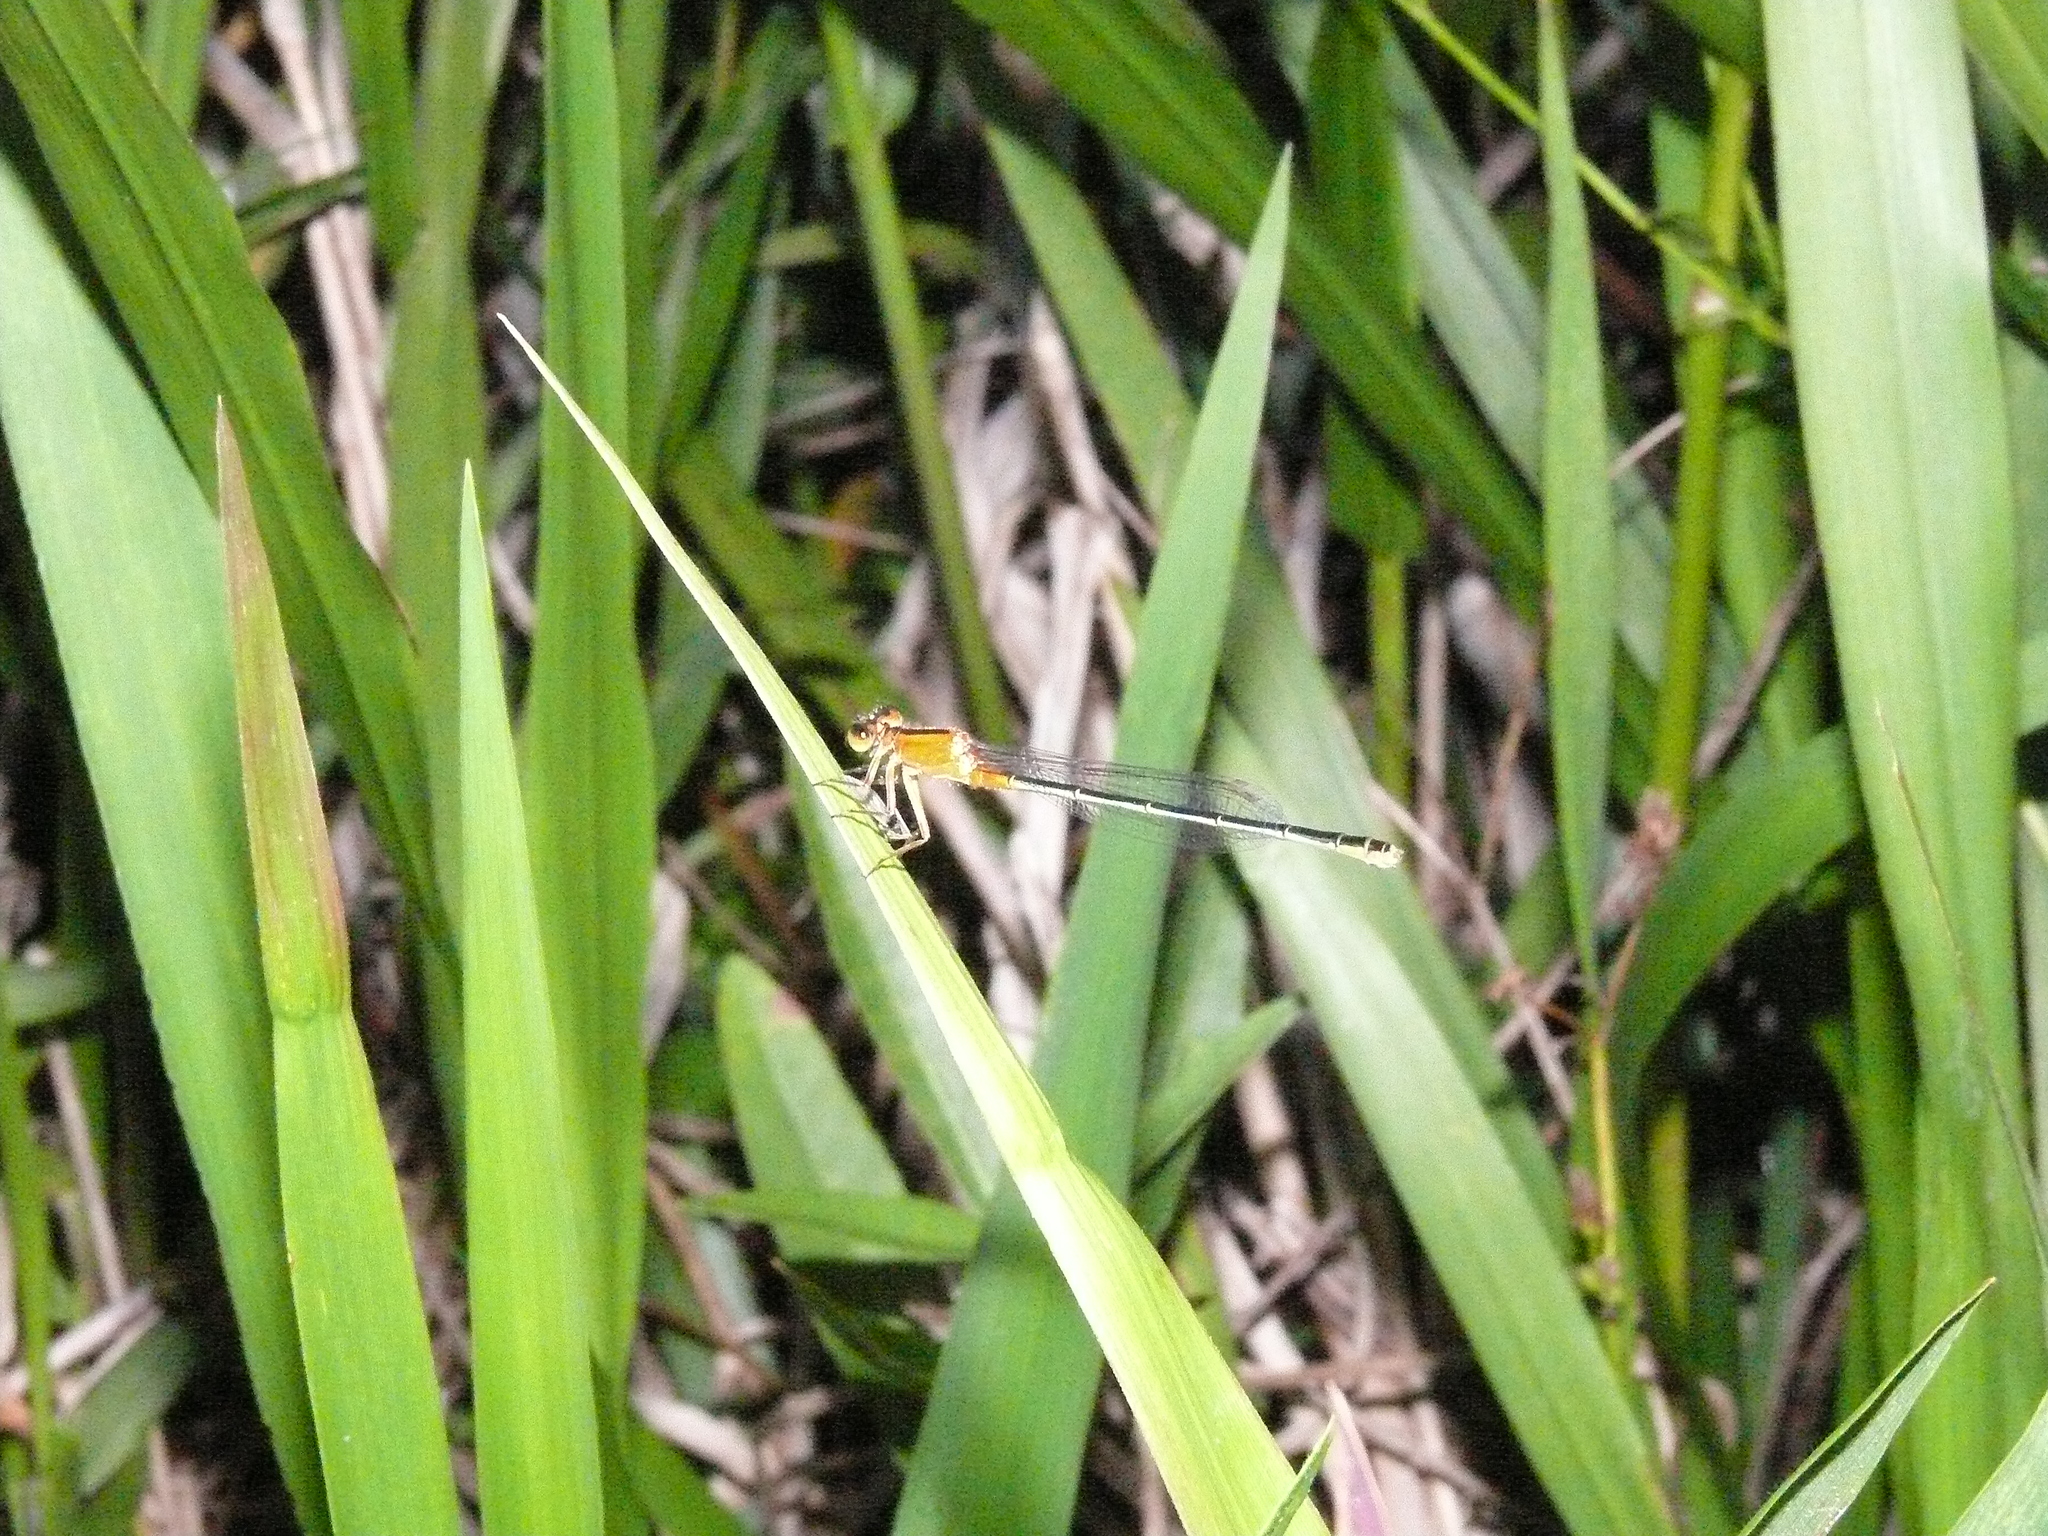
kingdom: Animalia
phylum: Arthropoda
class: Insecta
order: Odonata
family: Coenagrionidae
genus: Ischnura
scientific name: Ischnura ramburii
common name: Rambur's forktail
